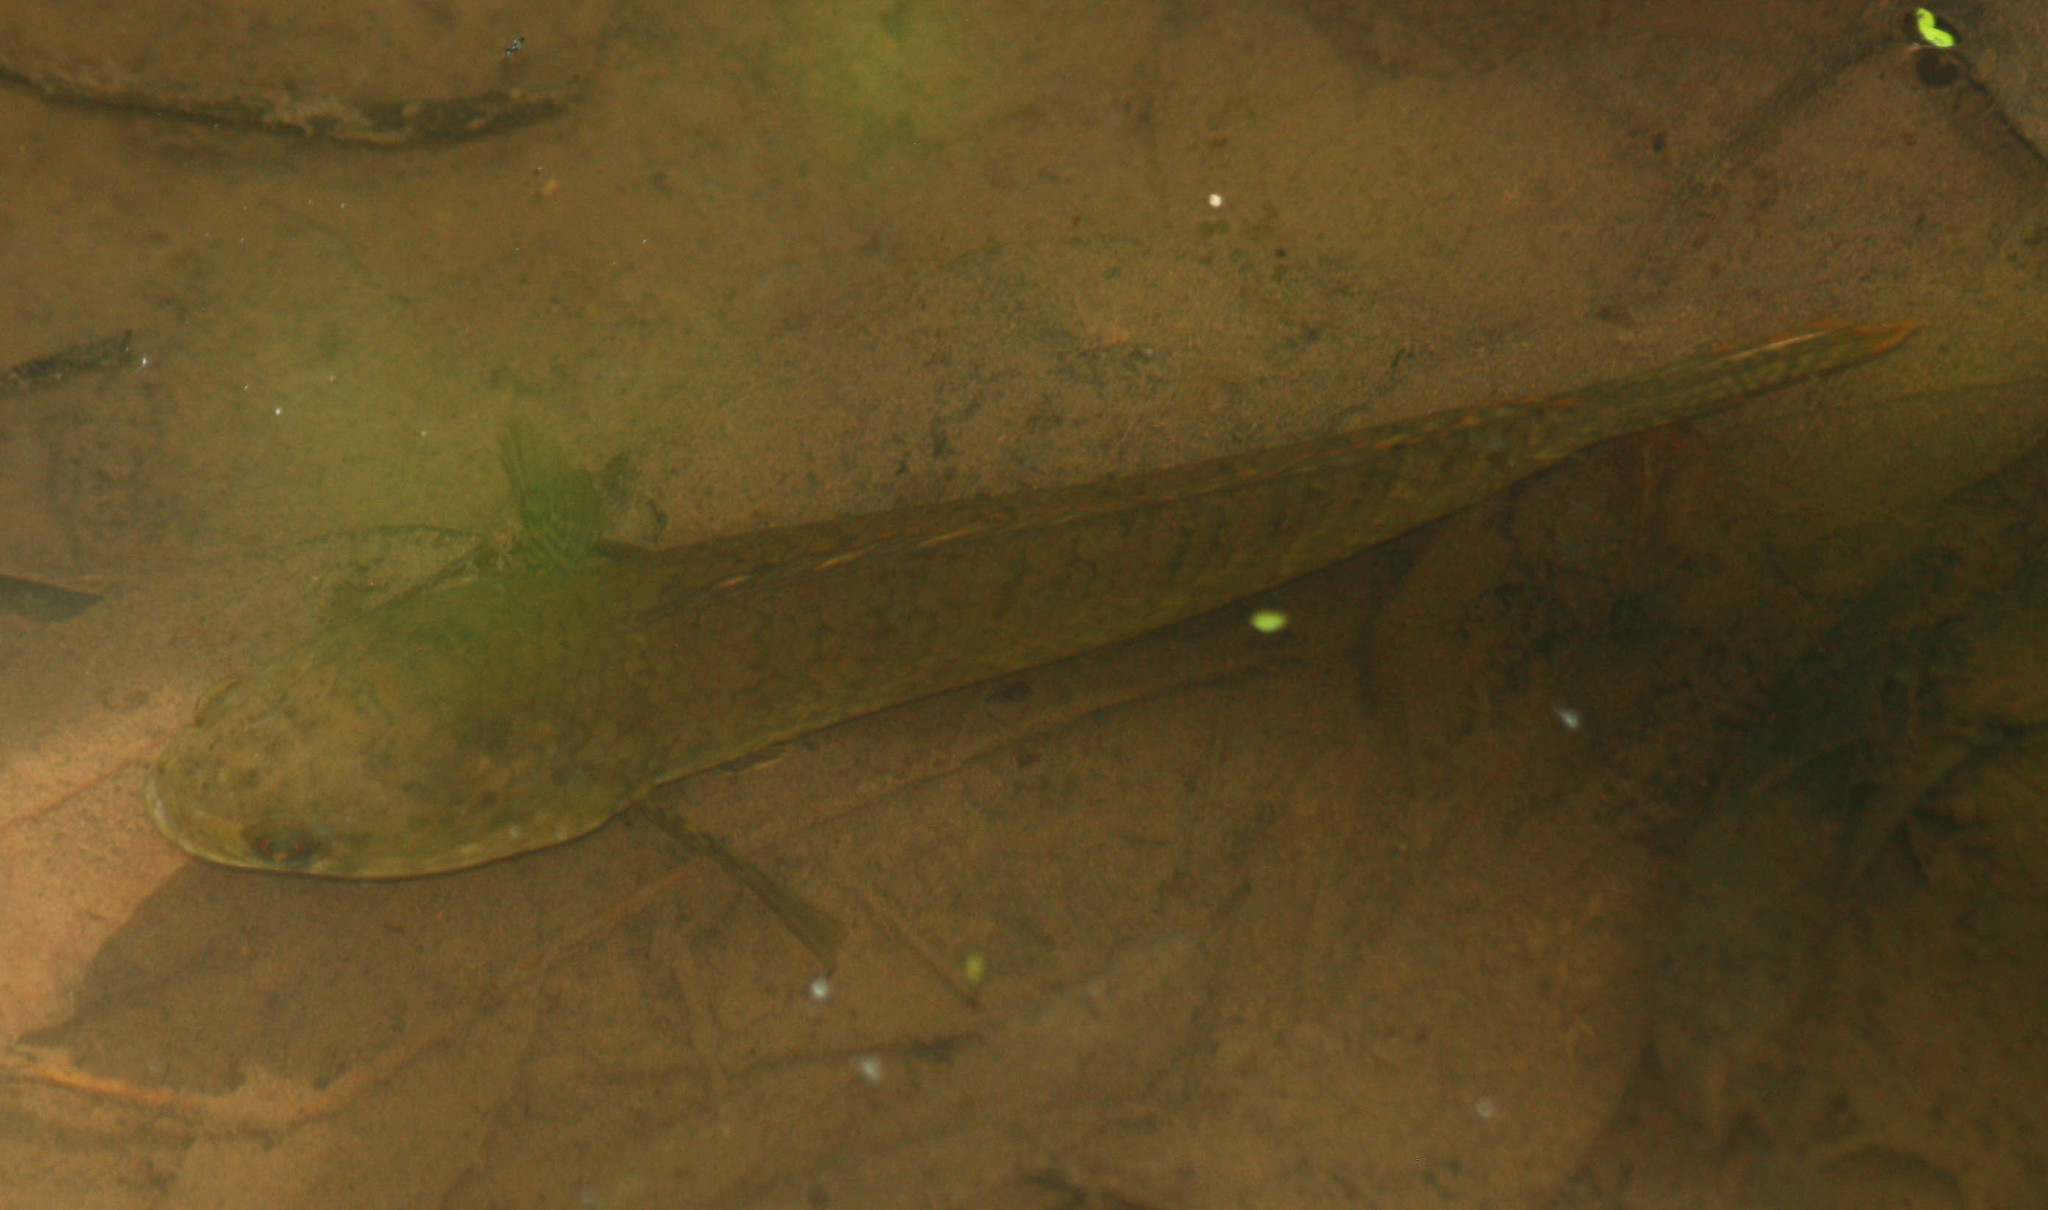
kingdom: Animalia
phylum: Chordata
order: Perciformes
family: Channidae
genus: Channa
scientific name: Channa gachua
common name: Dwarf snakehead
